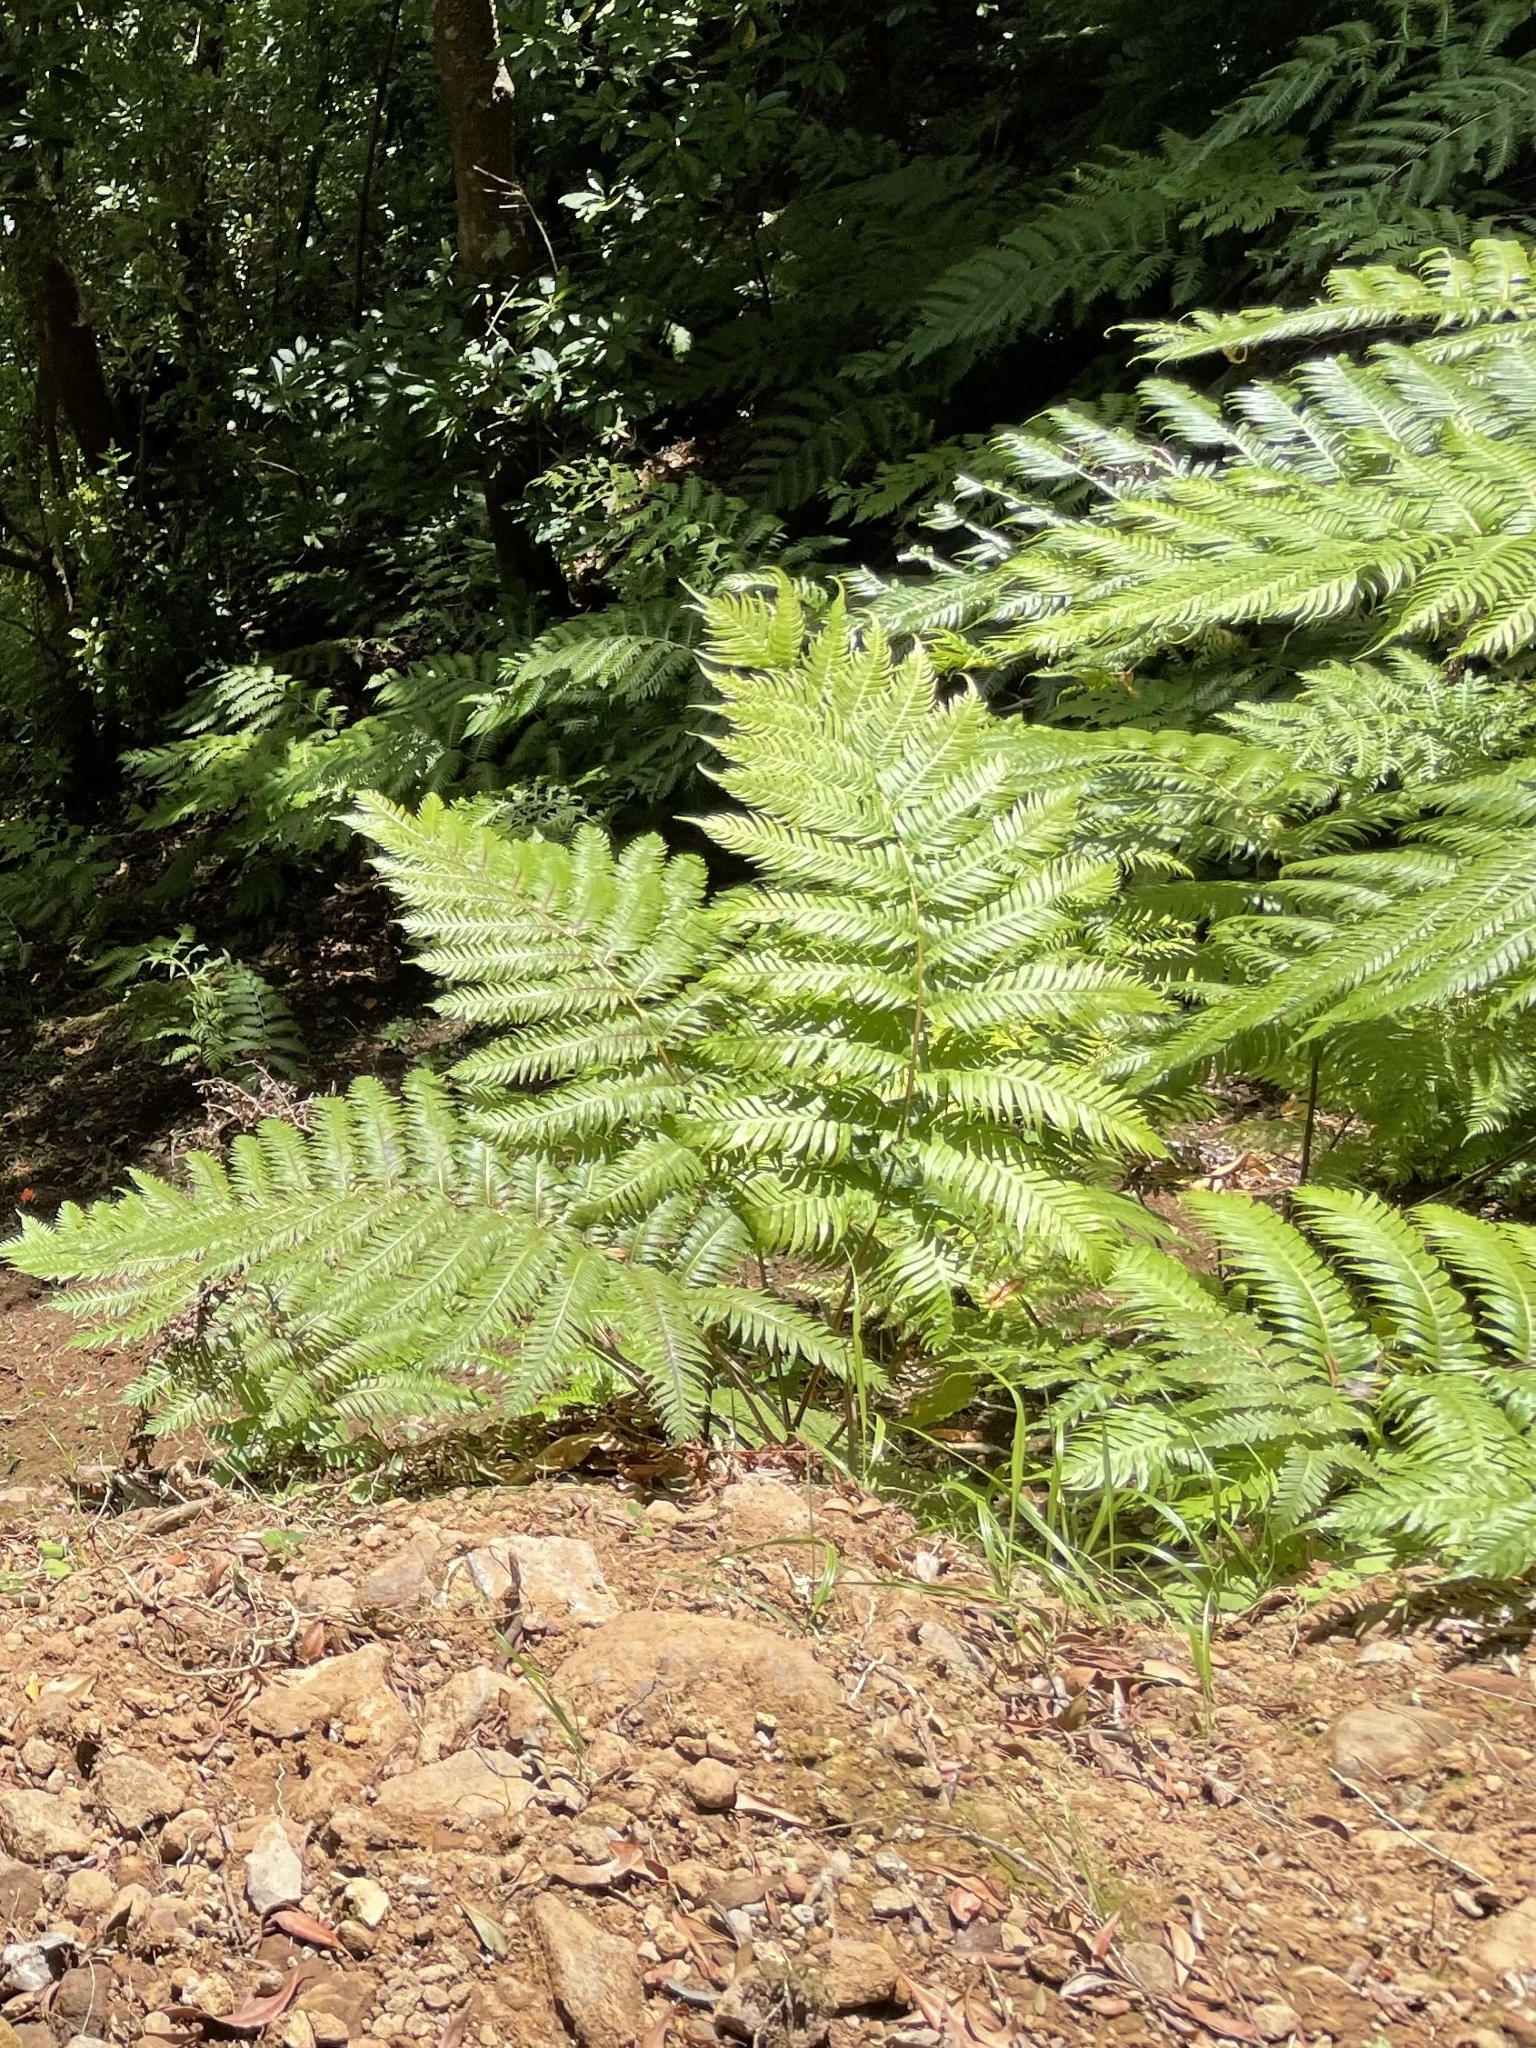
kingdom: Plantae
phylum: Tracheophyta
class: Polypodiopsida
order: Polypodiales
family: Blechnaceae
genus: Woodwardia
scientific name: Woodwardia radicans
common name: Rooting chainfern
